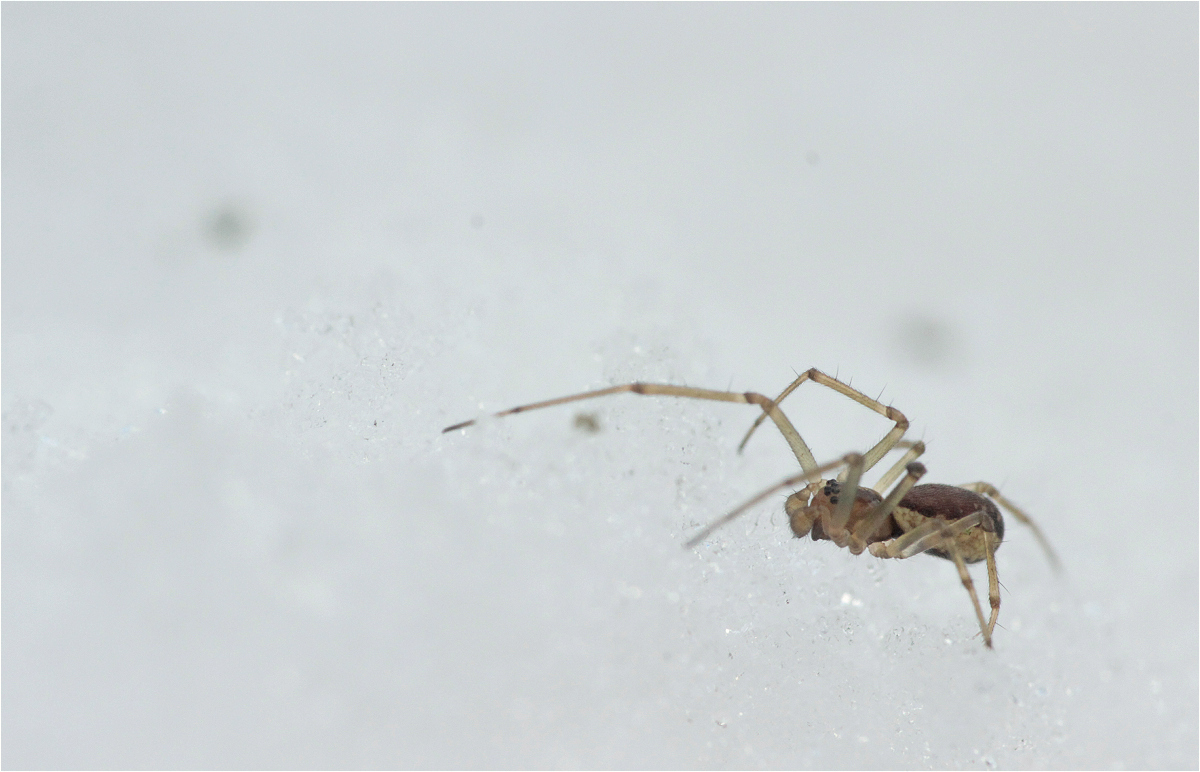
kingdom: Animalia
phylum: Arthropoda
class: Arachnida
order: Araneae
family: Linyphiidae
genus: Neriene
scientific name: Neriene peltata
